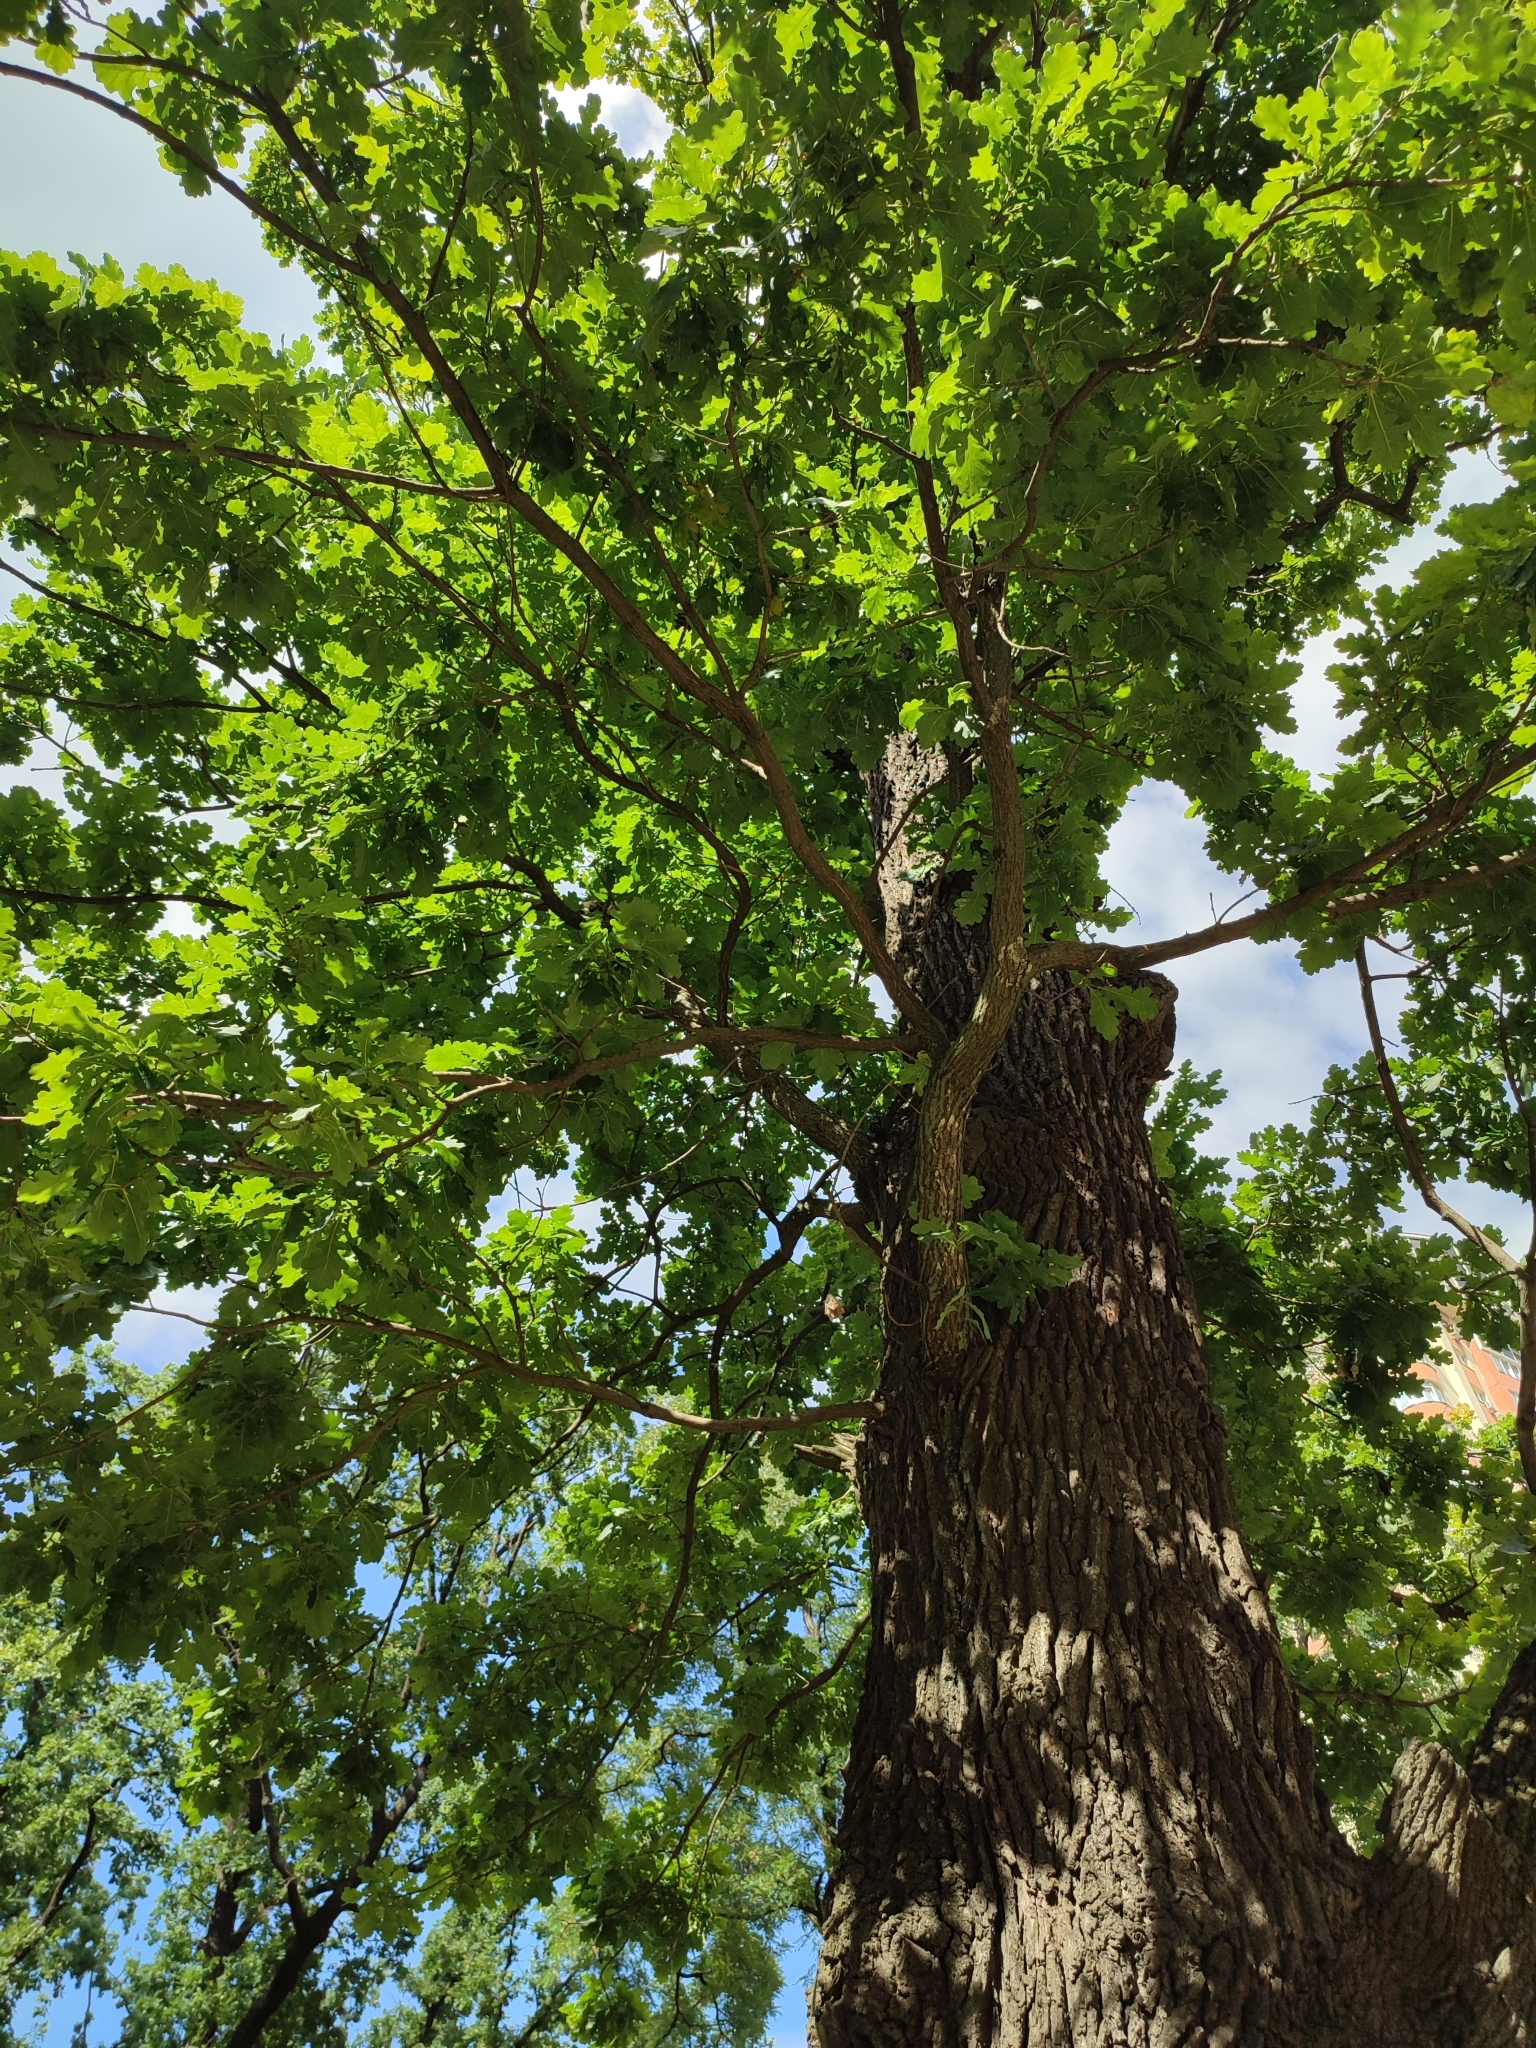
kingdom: Plantae
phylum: Tracheophyta
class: Magnoliopsida
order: Fagales
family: Fagaceae
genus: Quercus
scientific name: Quercus robur
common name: Pedunculate oak
